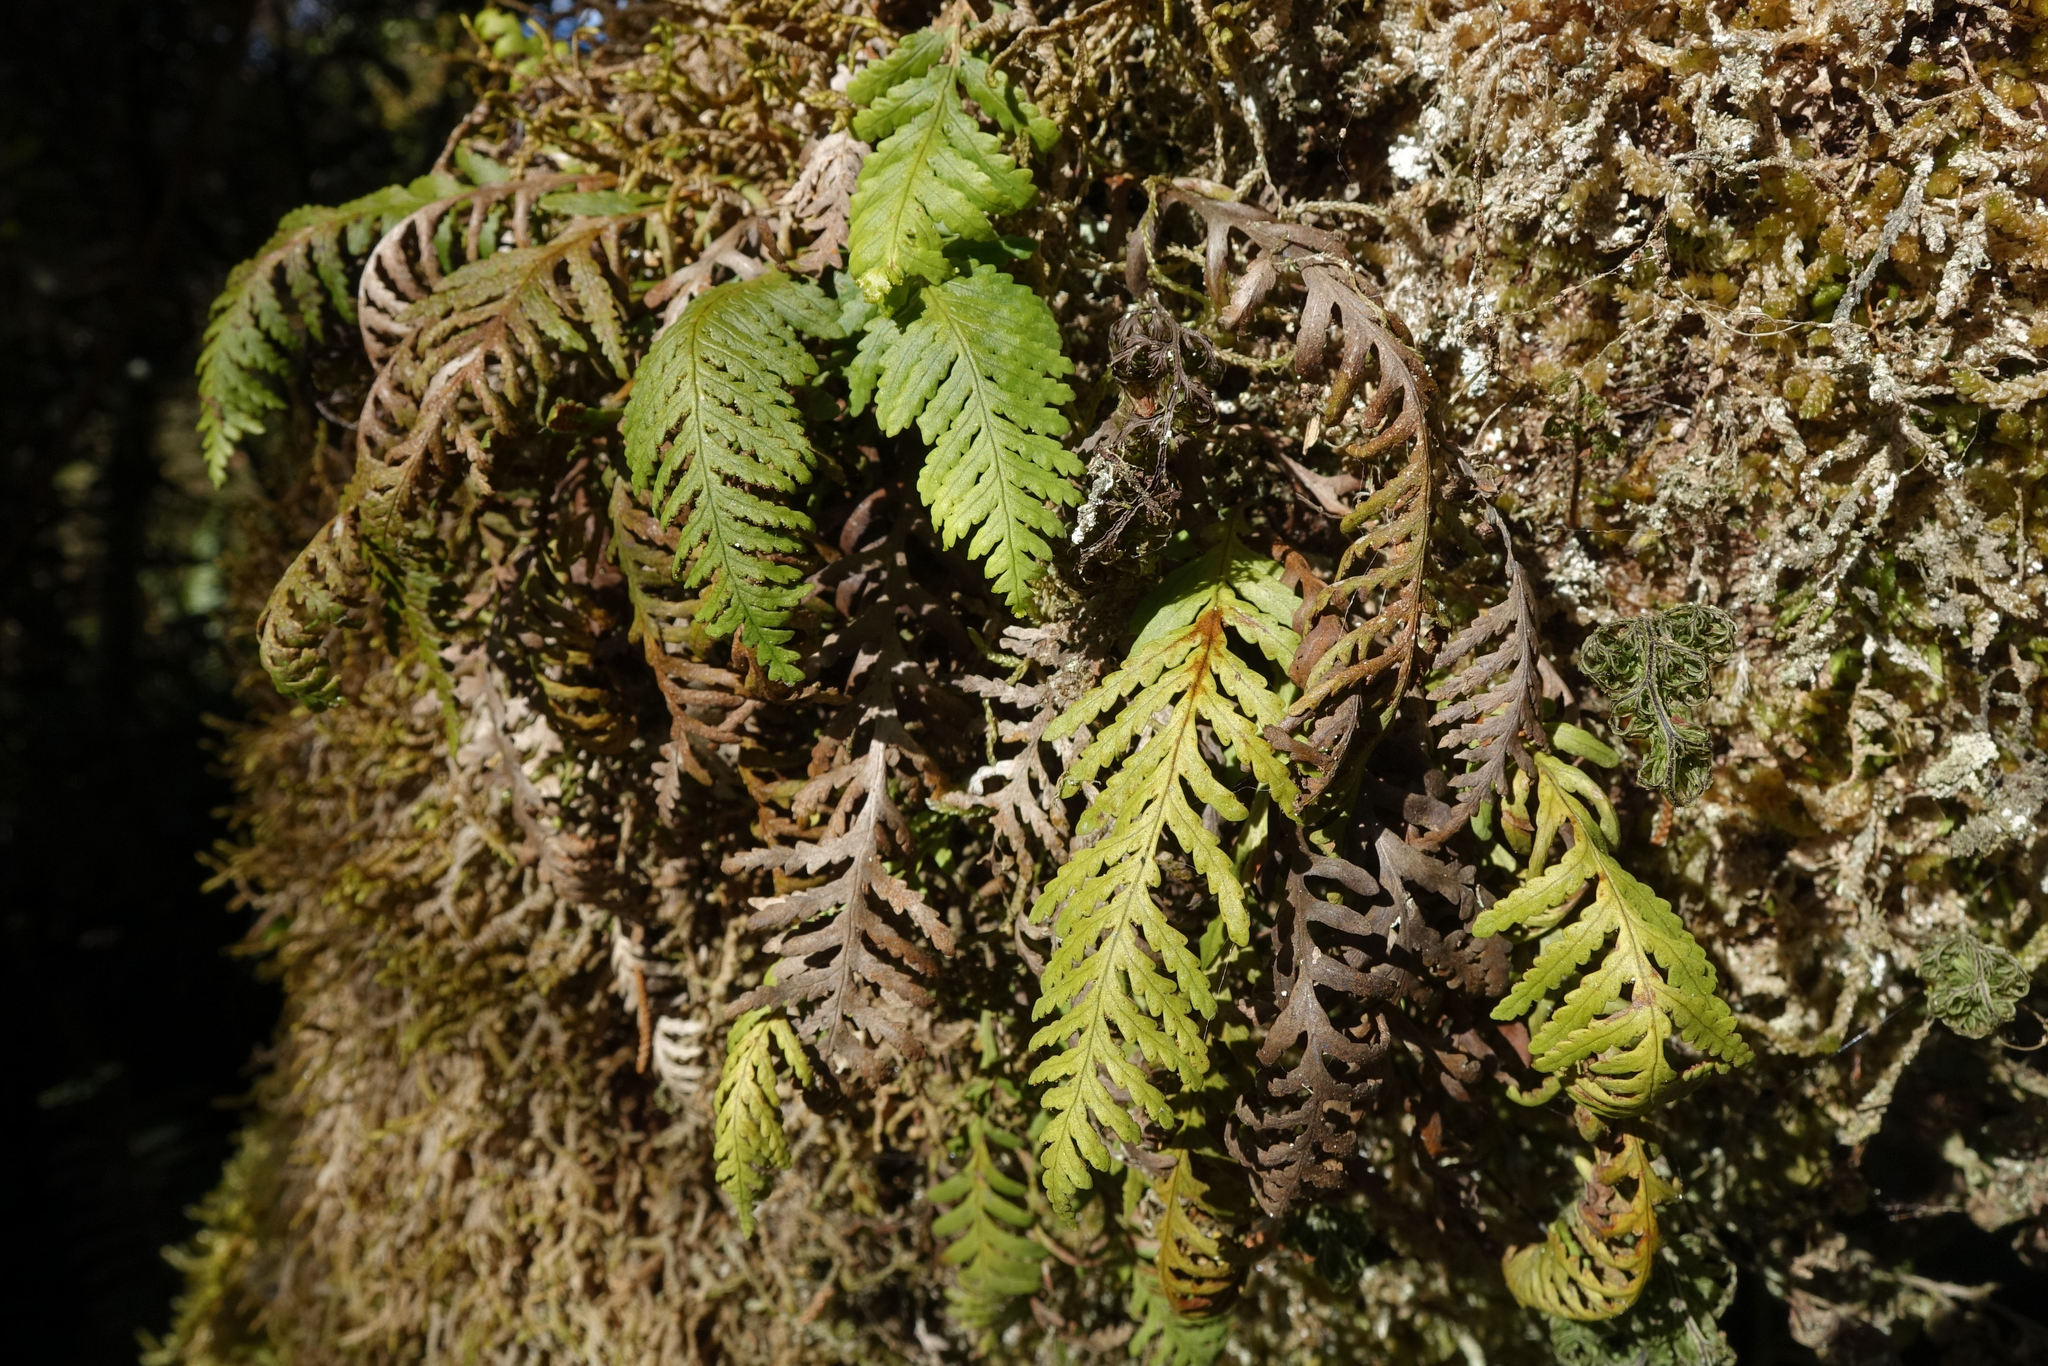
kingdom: Plantae
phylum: Tracheophyta
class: Polypodiopsida
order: Polypodiales
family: Polypodiaceae
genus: Notogrammitis
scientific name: Notogrammitis heterophylla
